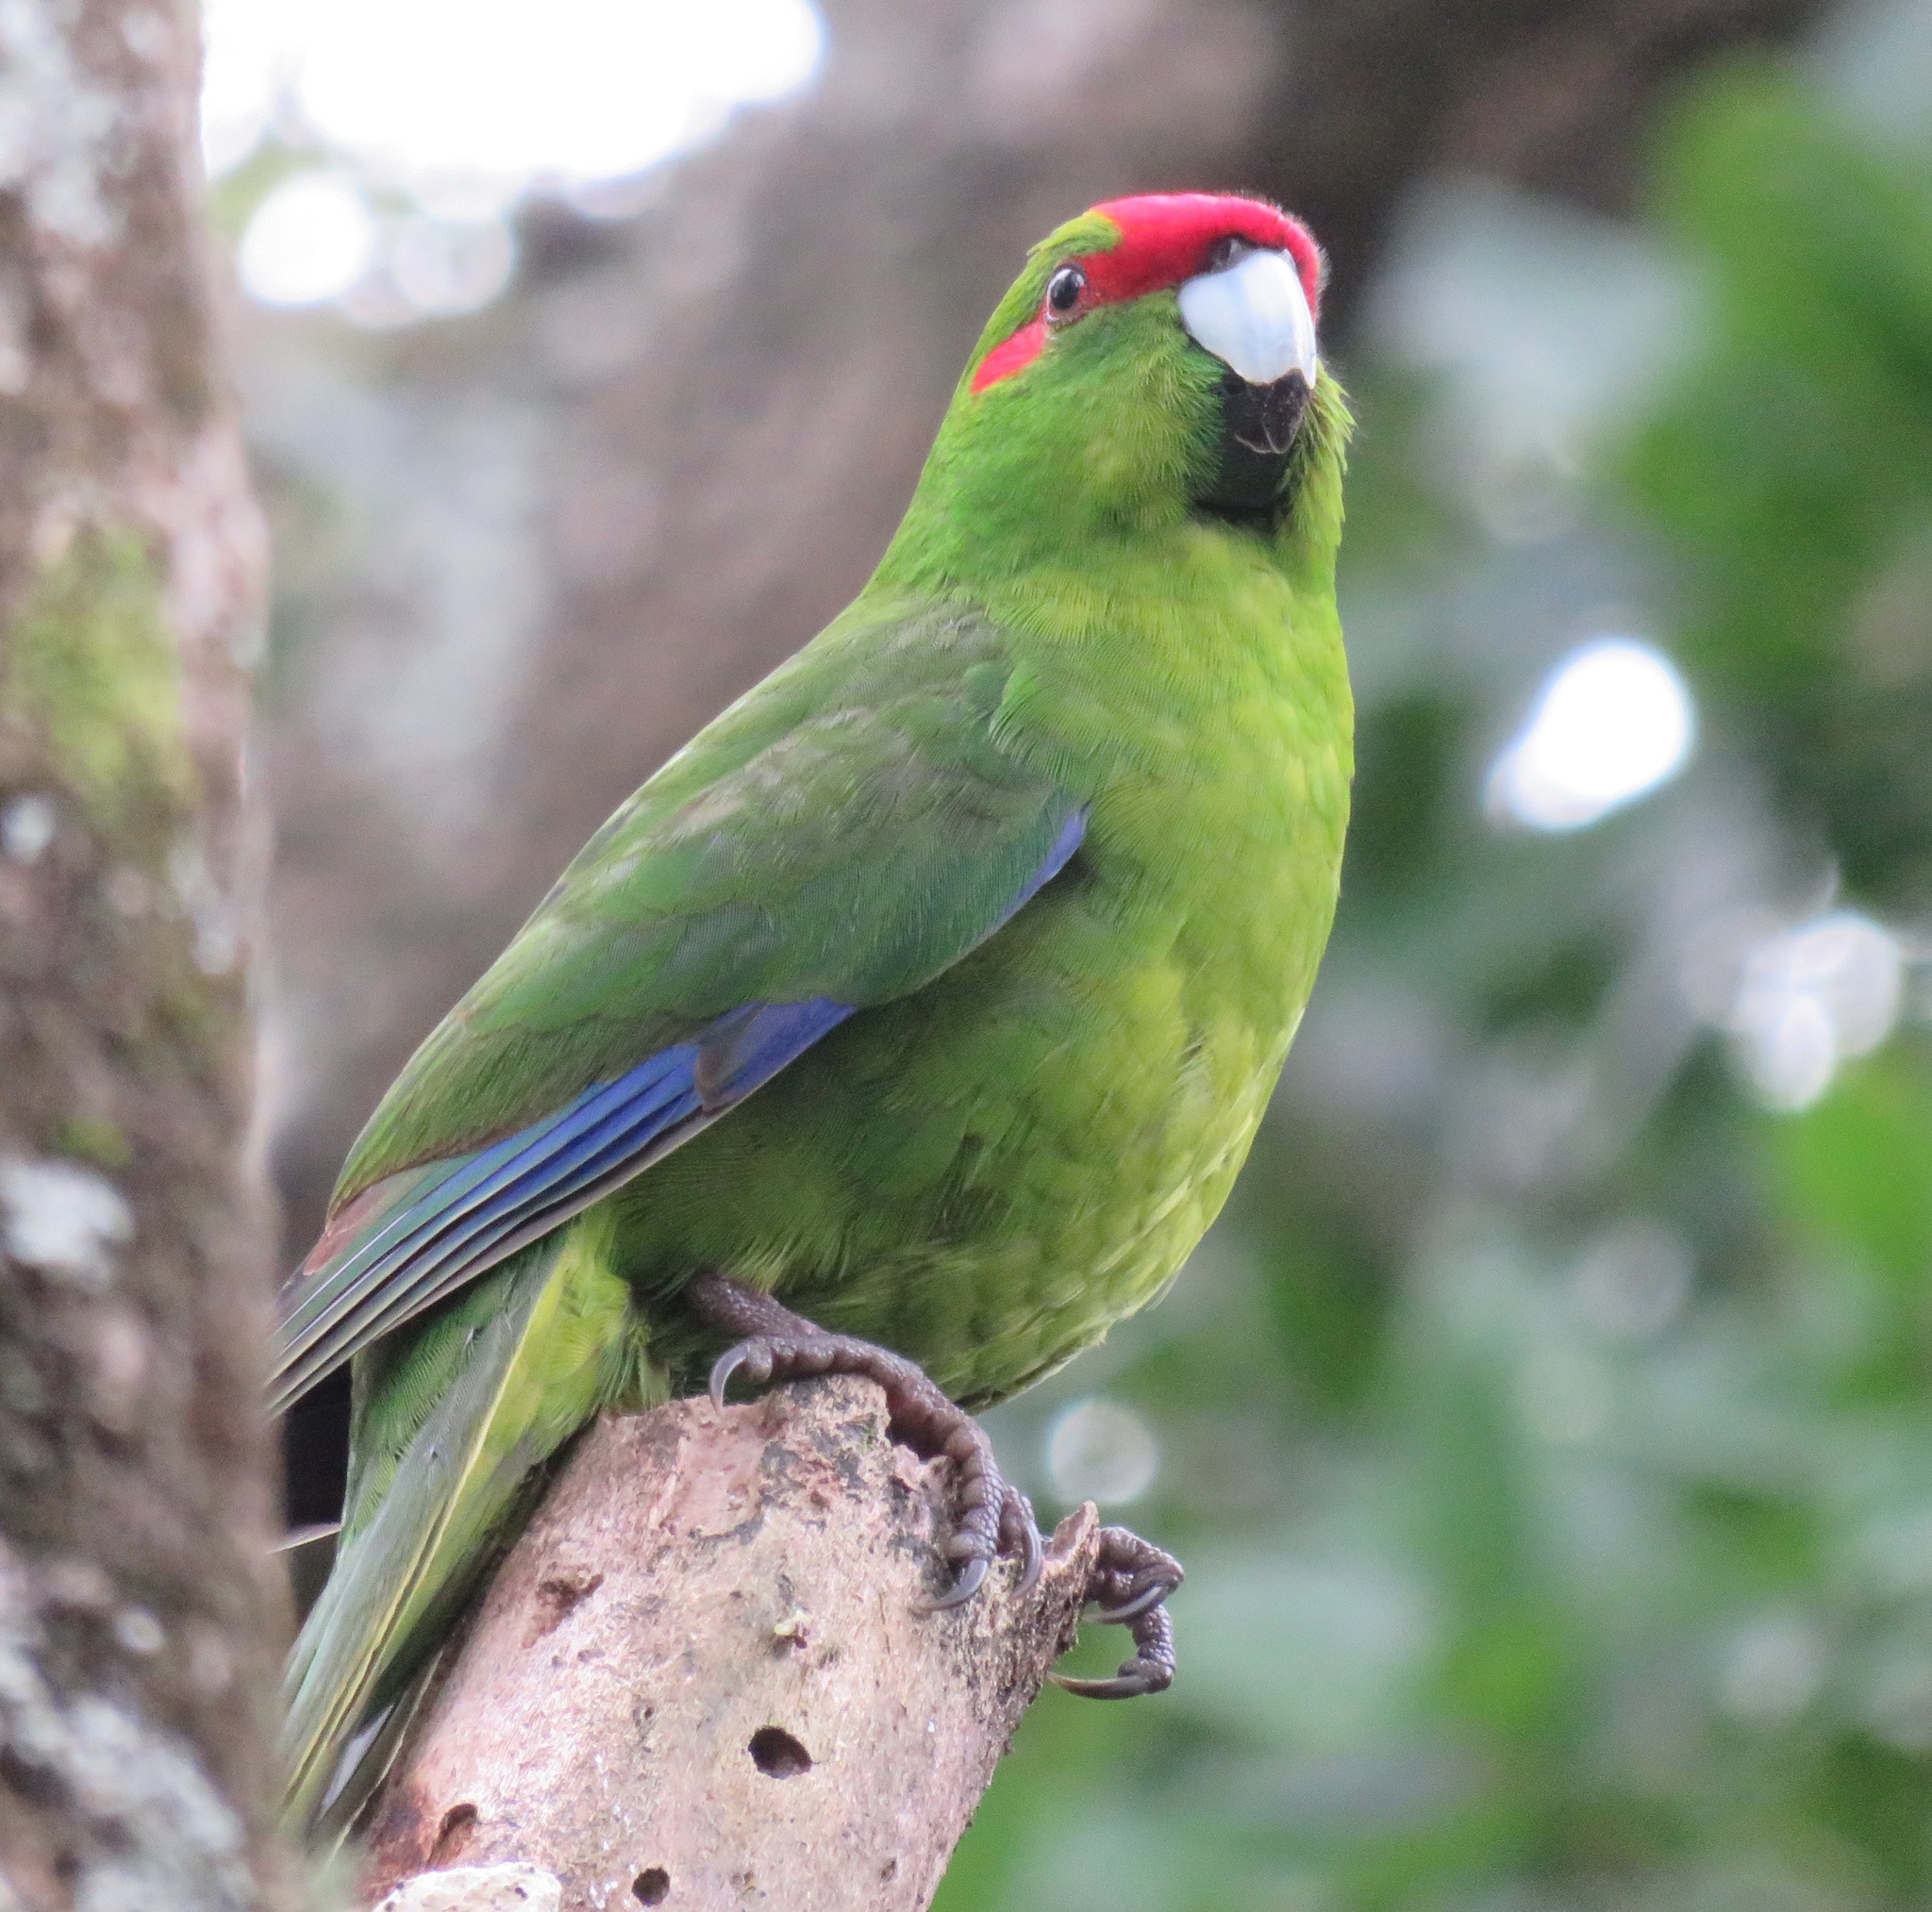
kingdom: Animalia
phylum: Chordata
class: Aves
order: Psittaciformes
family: Psittacidae
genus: Cyanoramphus
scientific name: Cyanoramphus novaezelandiae
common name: Red-fronted parakeet
